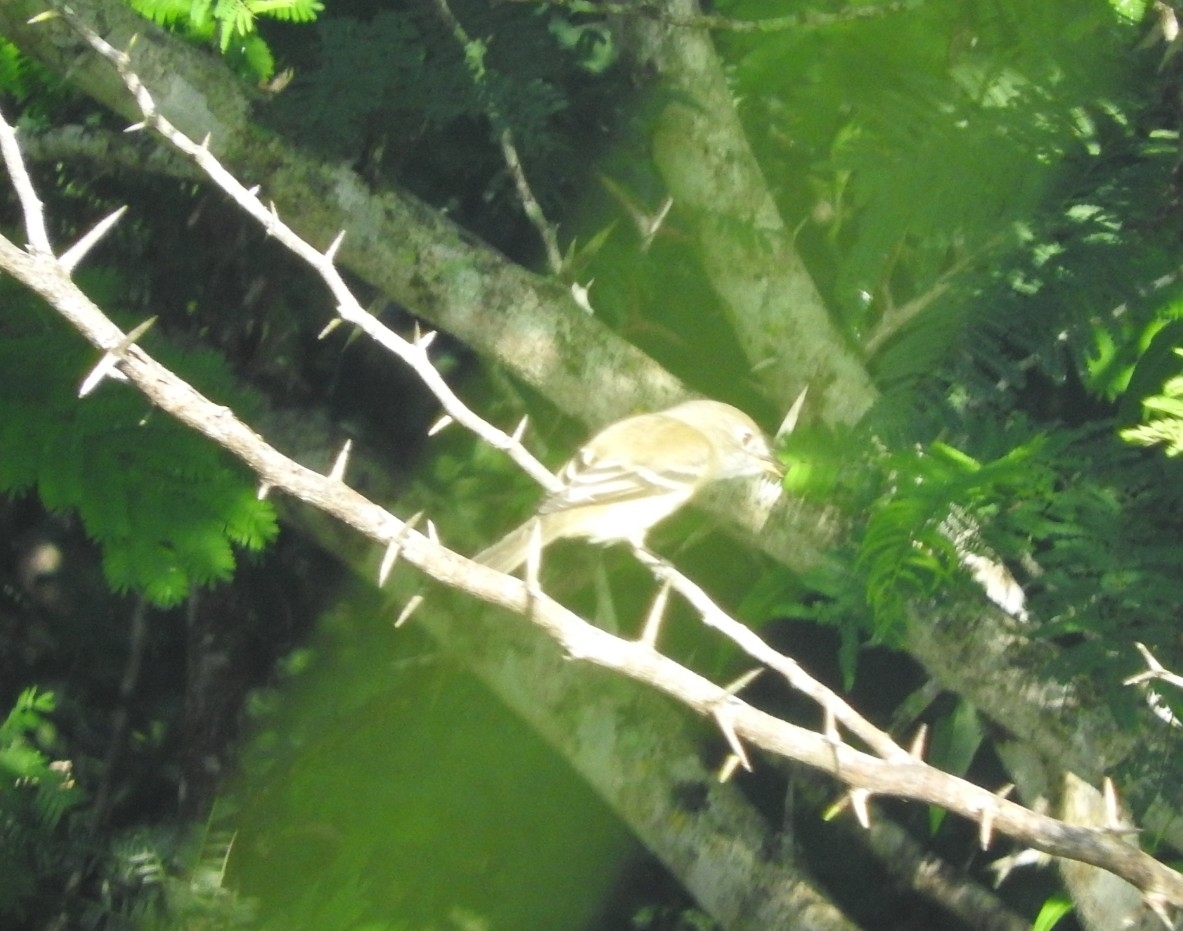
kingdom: Animalia
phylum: Chordata
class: Aves
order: Passeriformes
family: Tyrannidae
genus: Empidonax
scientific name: Empidonax minimus
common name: Least flycatcher
